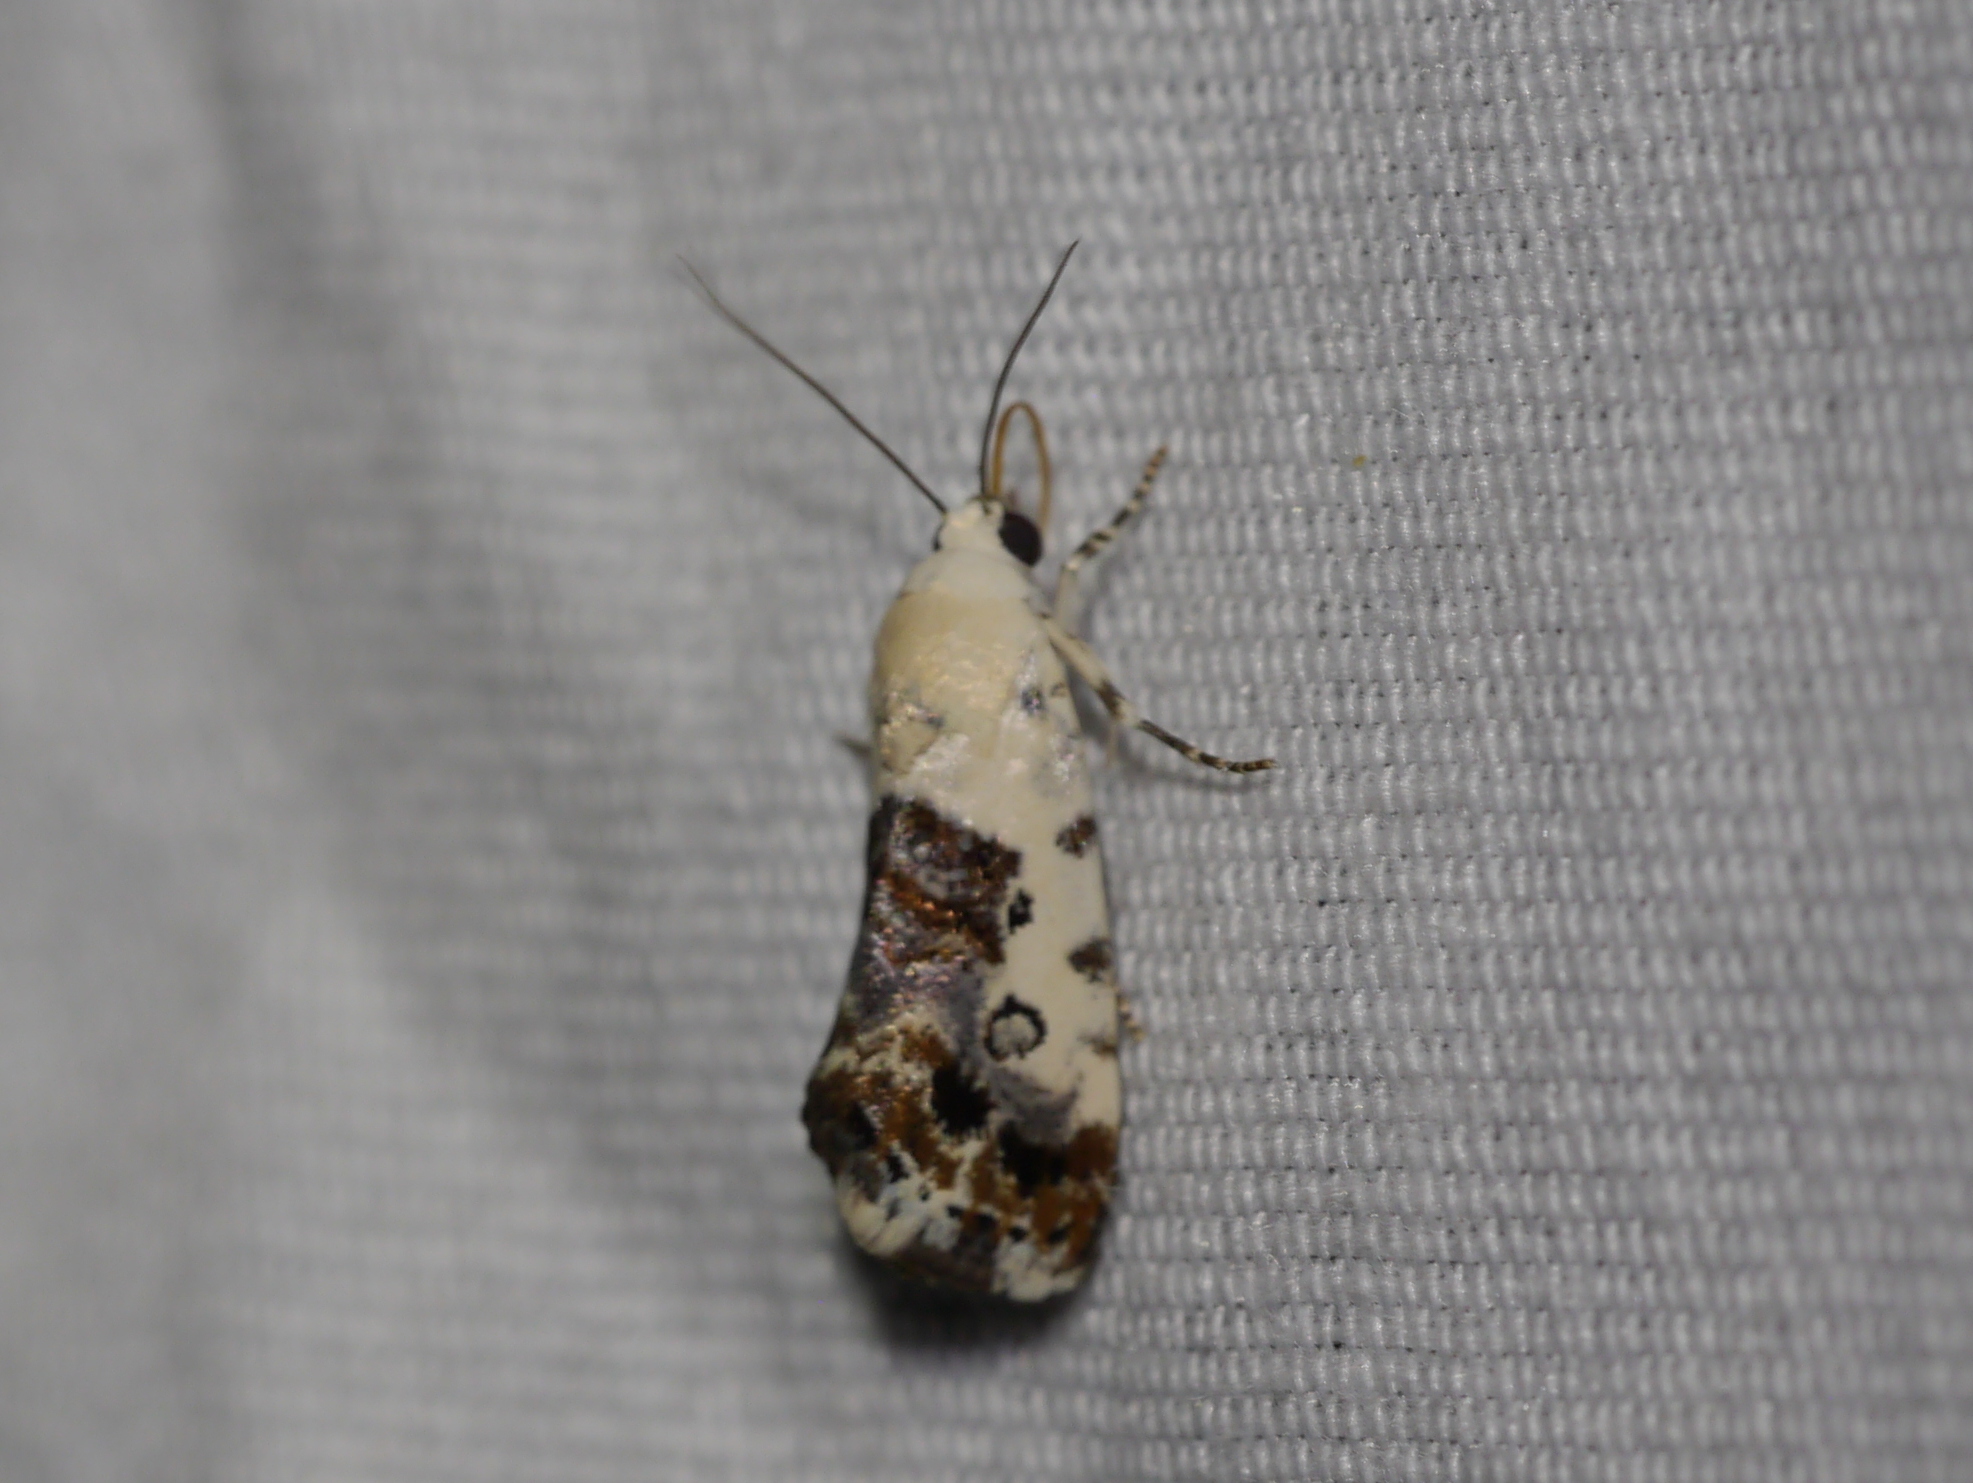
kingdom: Animalia
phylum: Arthropoda
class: Insecta
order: Lepidoptera
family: Noctuidae
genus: Acontia
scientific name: Acontia phecolisca
